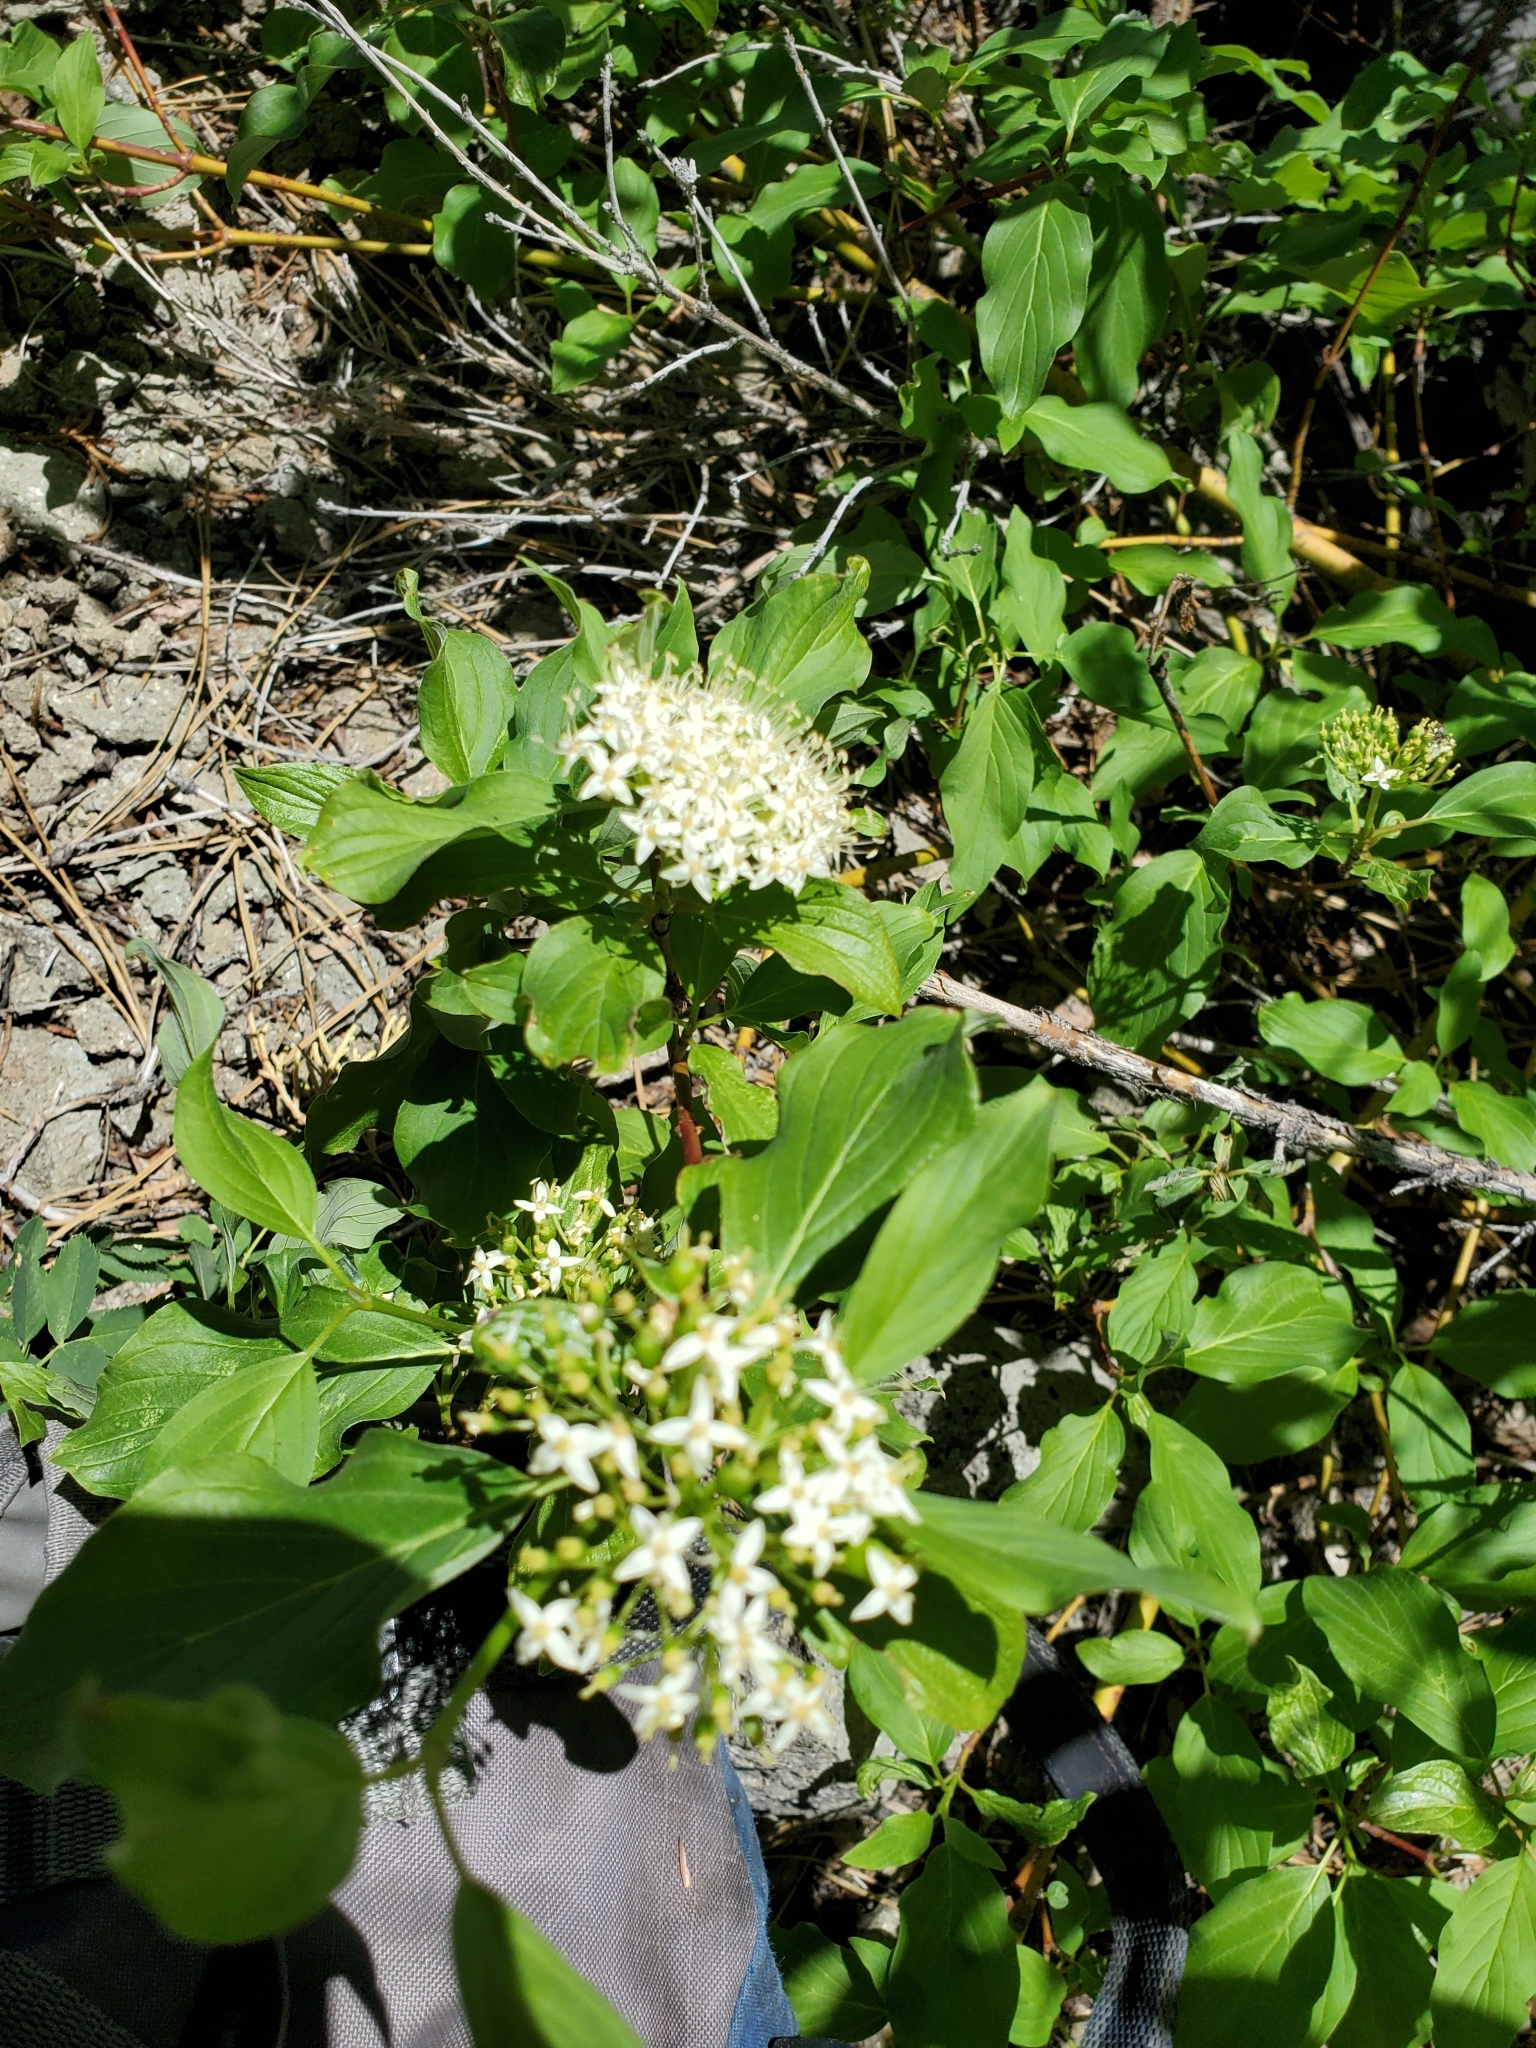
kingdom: Plantae
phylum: Tracheophyta
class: Magnoliopsida
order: Cornales
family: Cornaceae
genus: Cornus
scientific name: Cornus sericea
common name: Red-osier dogwood
